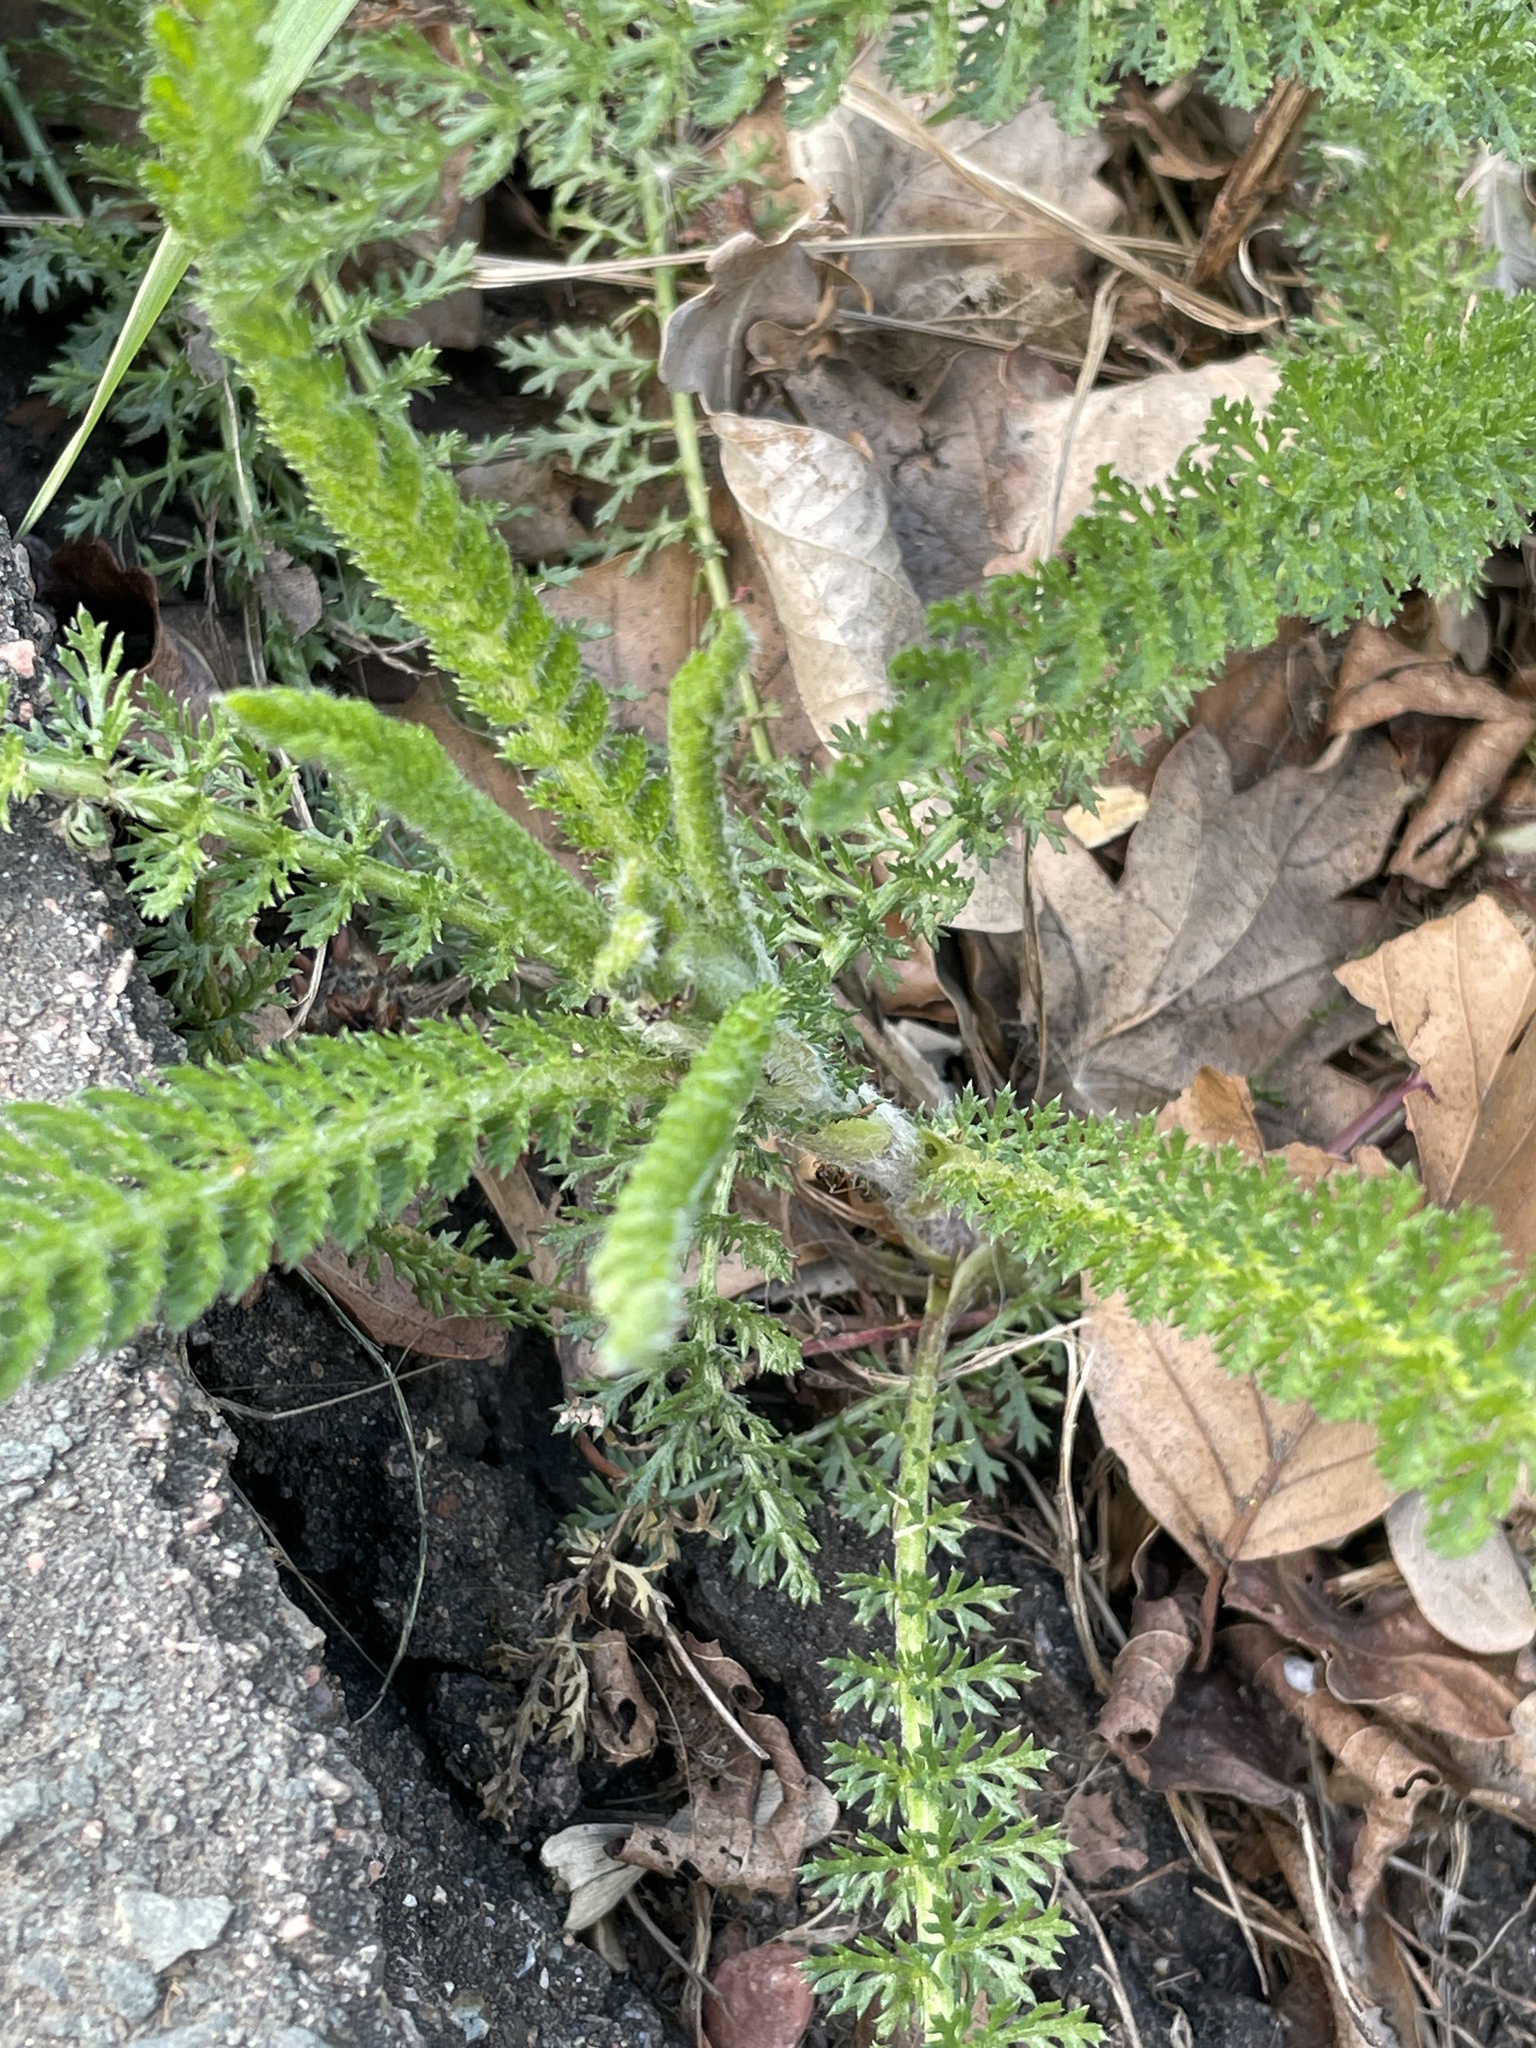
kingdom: Plantae
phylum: Tracheophyta
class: Magnoliopsida
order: Asterales
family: Asteraceae
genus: Achillea
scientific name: Achillea millefolium
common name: Yarrow
